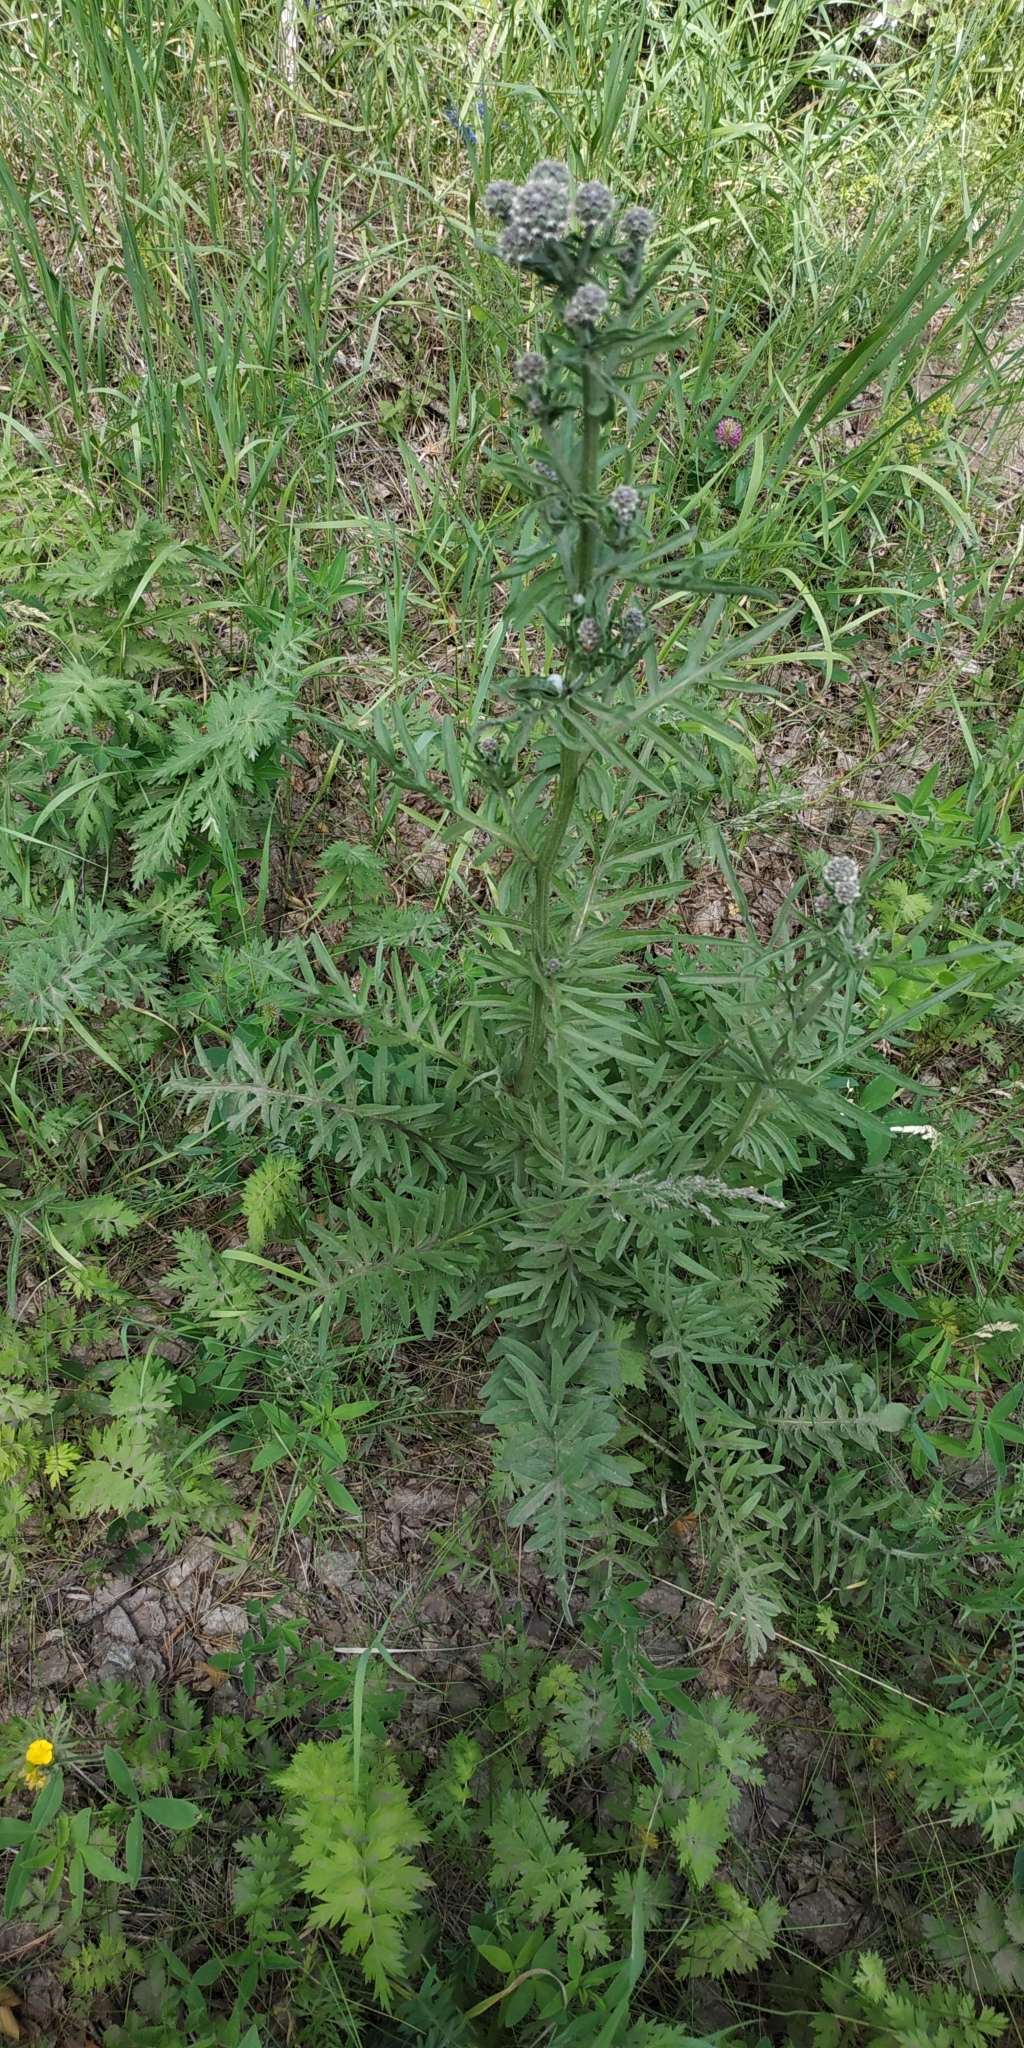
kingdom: Plantae
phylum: Tracheophyta
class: Magnoliopsida
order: Asterales
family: Asteraceae
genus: Centaurea
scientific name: Centaurea scabiosa
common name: Greater knapweed
